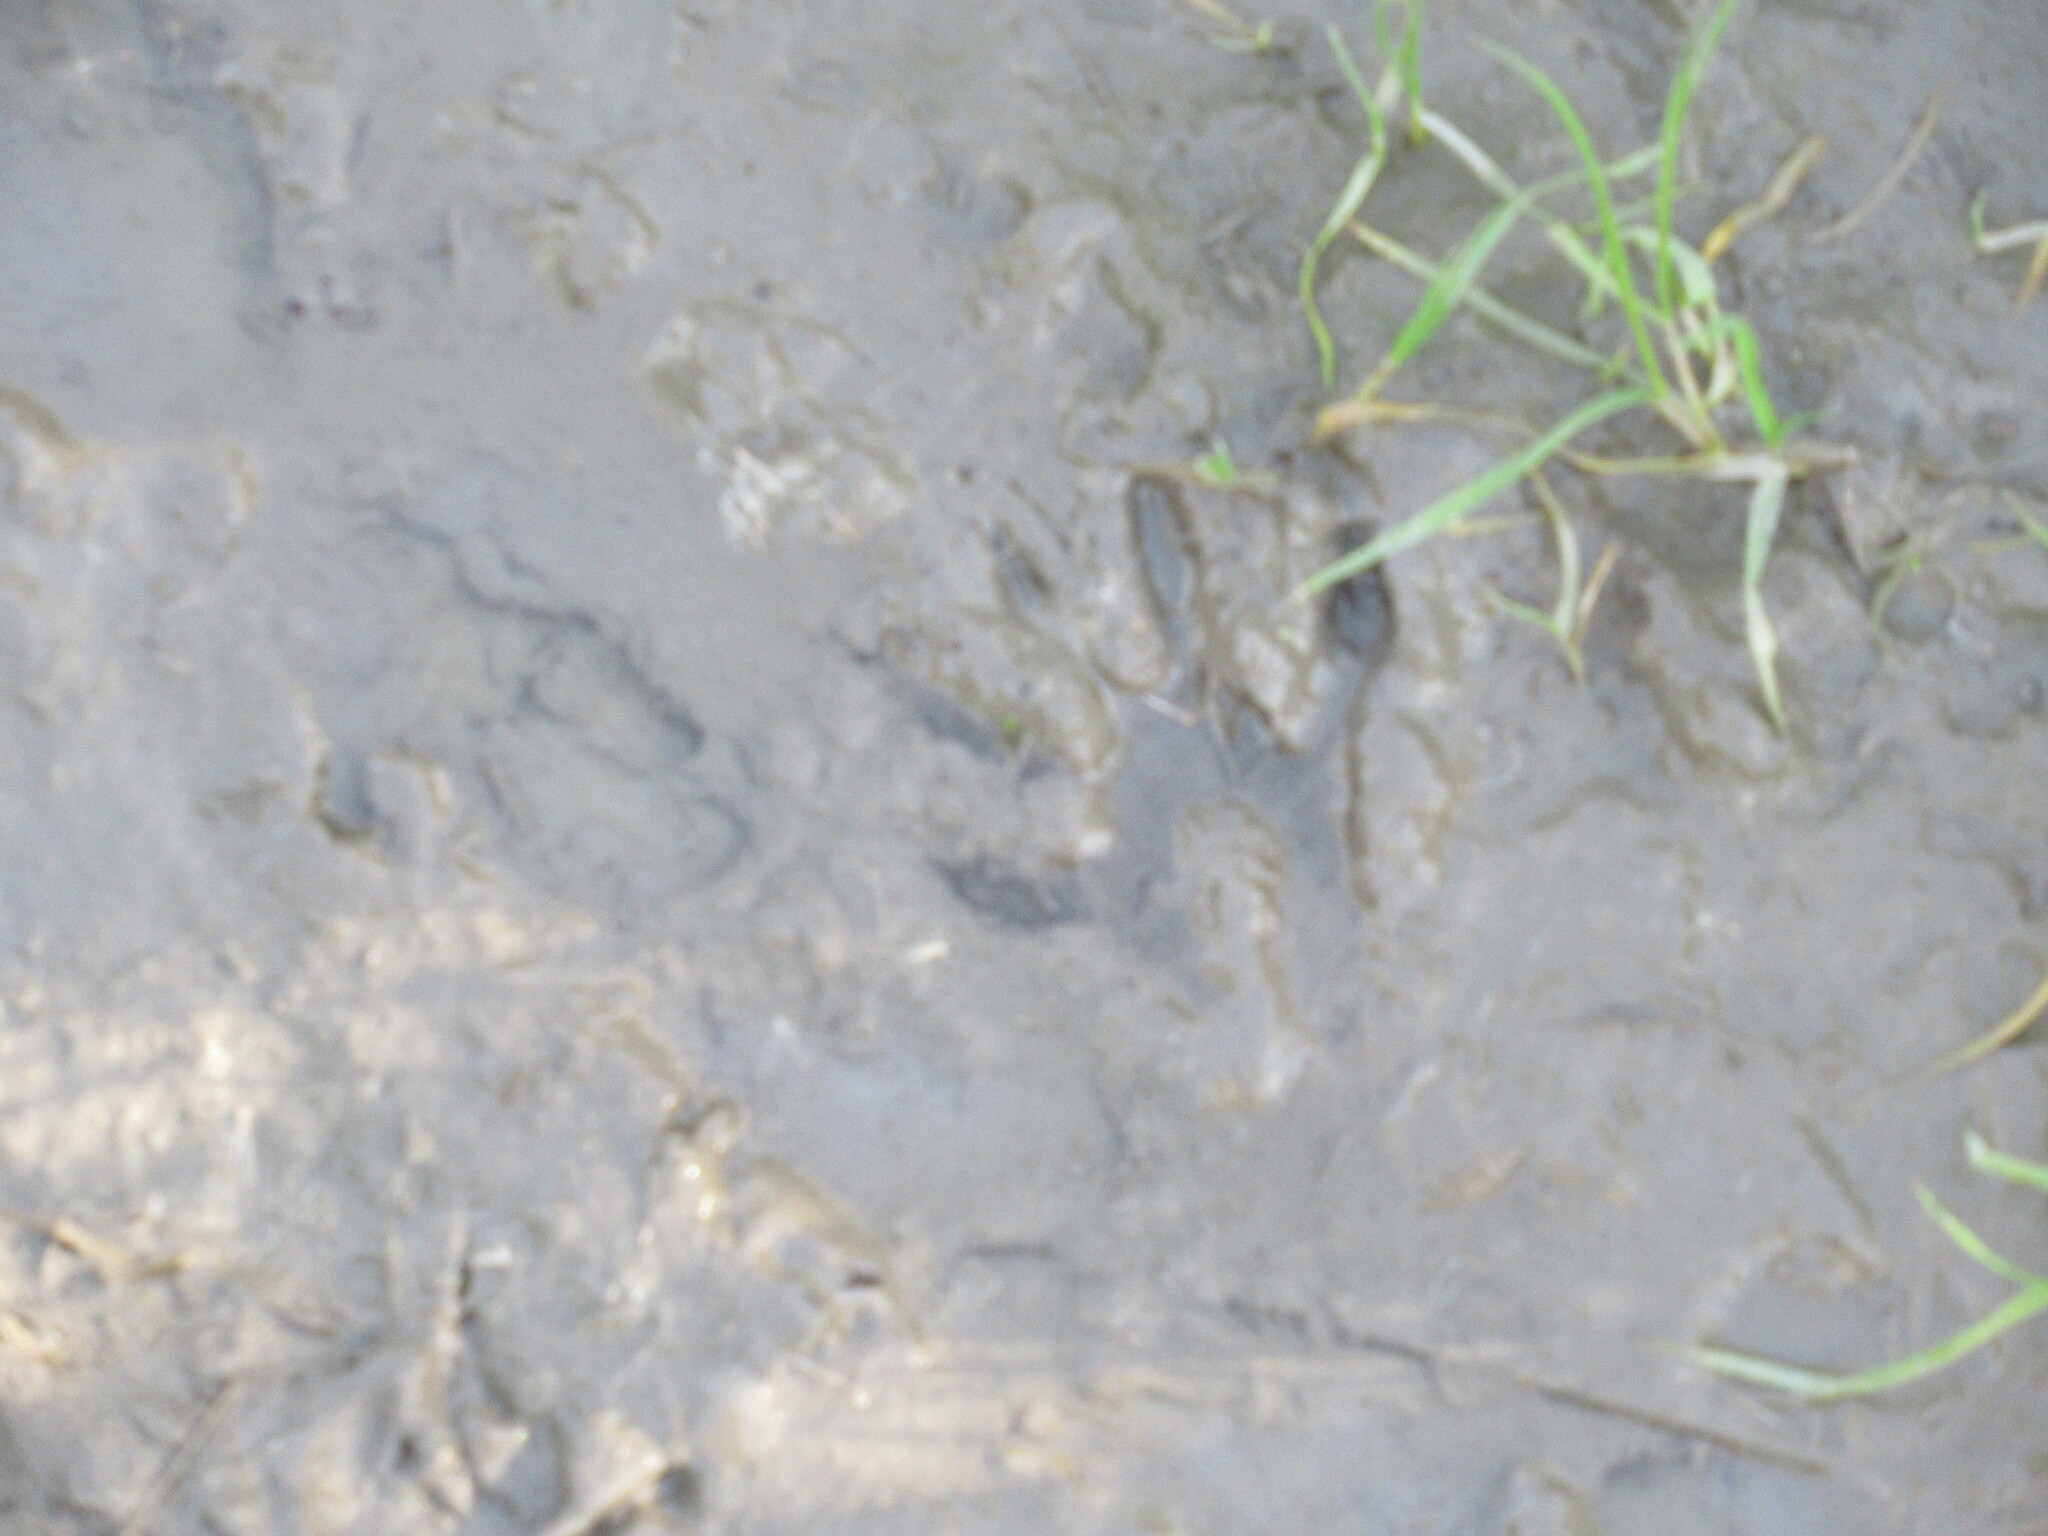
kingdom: Animalia
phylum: Chordata
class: Mammalia
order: Carnivora
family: Procyonidae
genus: Procyon
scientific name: Procyon lotor
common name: Raccoon
